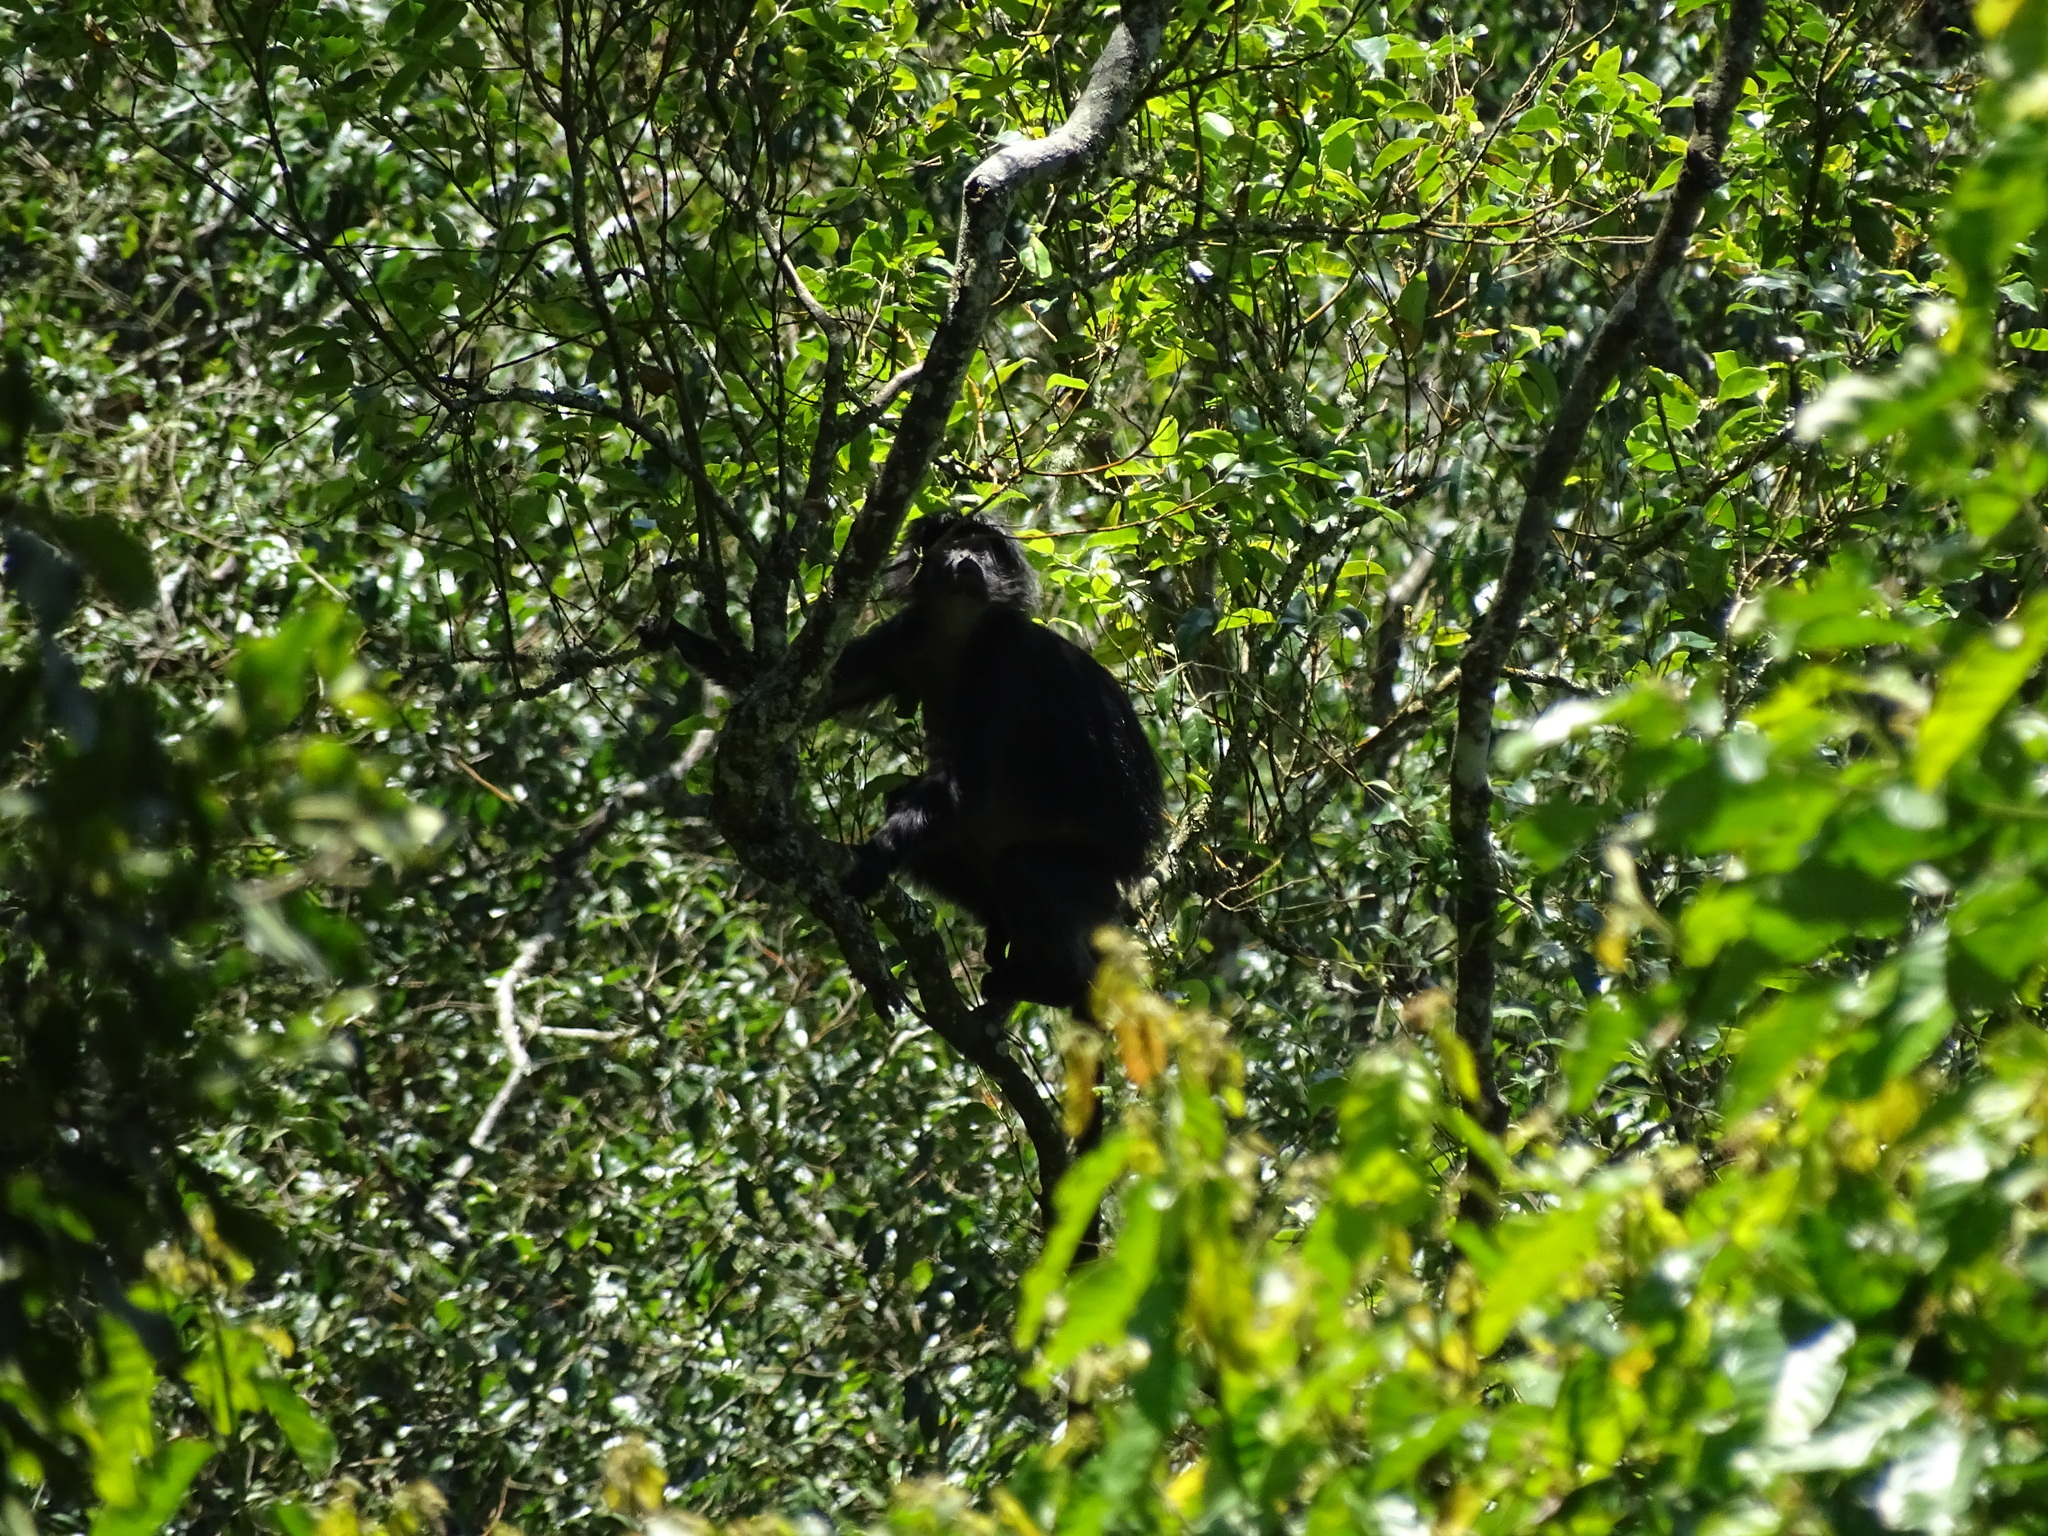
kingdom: Animalia
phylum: Chordata
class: Mammalia
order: Primates
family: Cercopithecidae
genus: Trachypithecus
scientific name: Trachypithecus auratus
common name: Javan lutung
